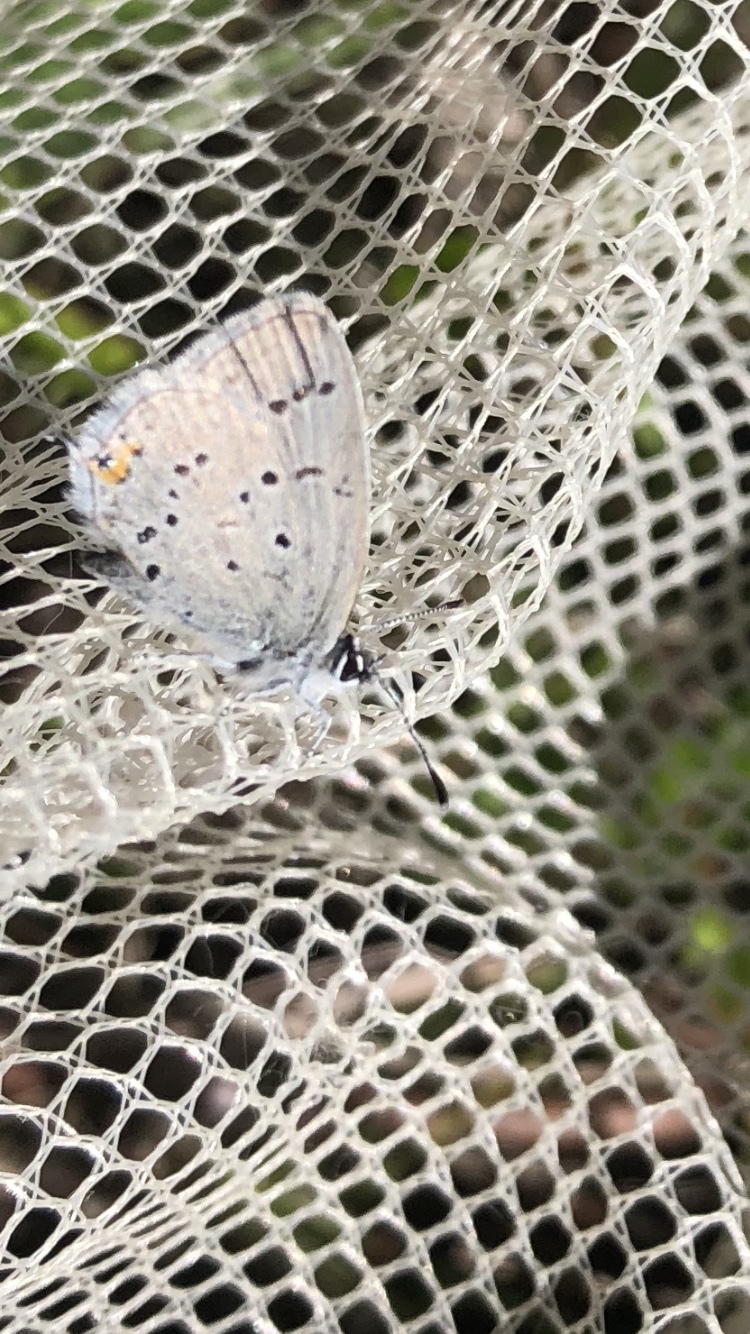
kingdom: Animalia
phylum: Arthropoda
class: Insecta
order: Lepidoptera
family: Lycaenidae
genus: Elkalyce
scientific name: Elkalyce amyntula
